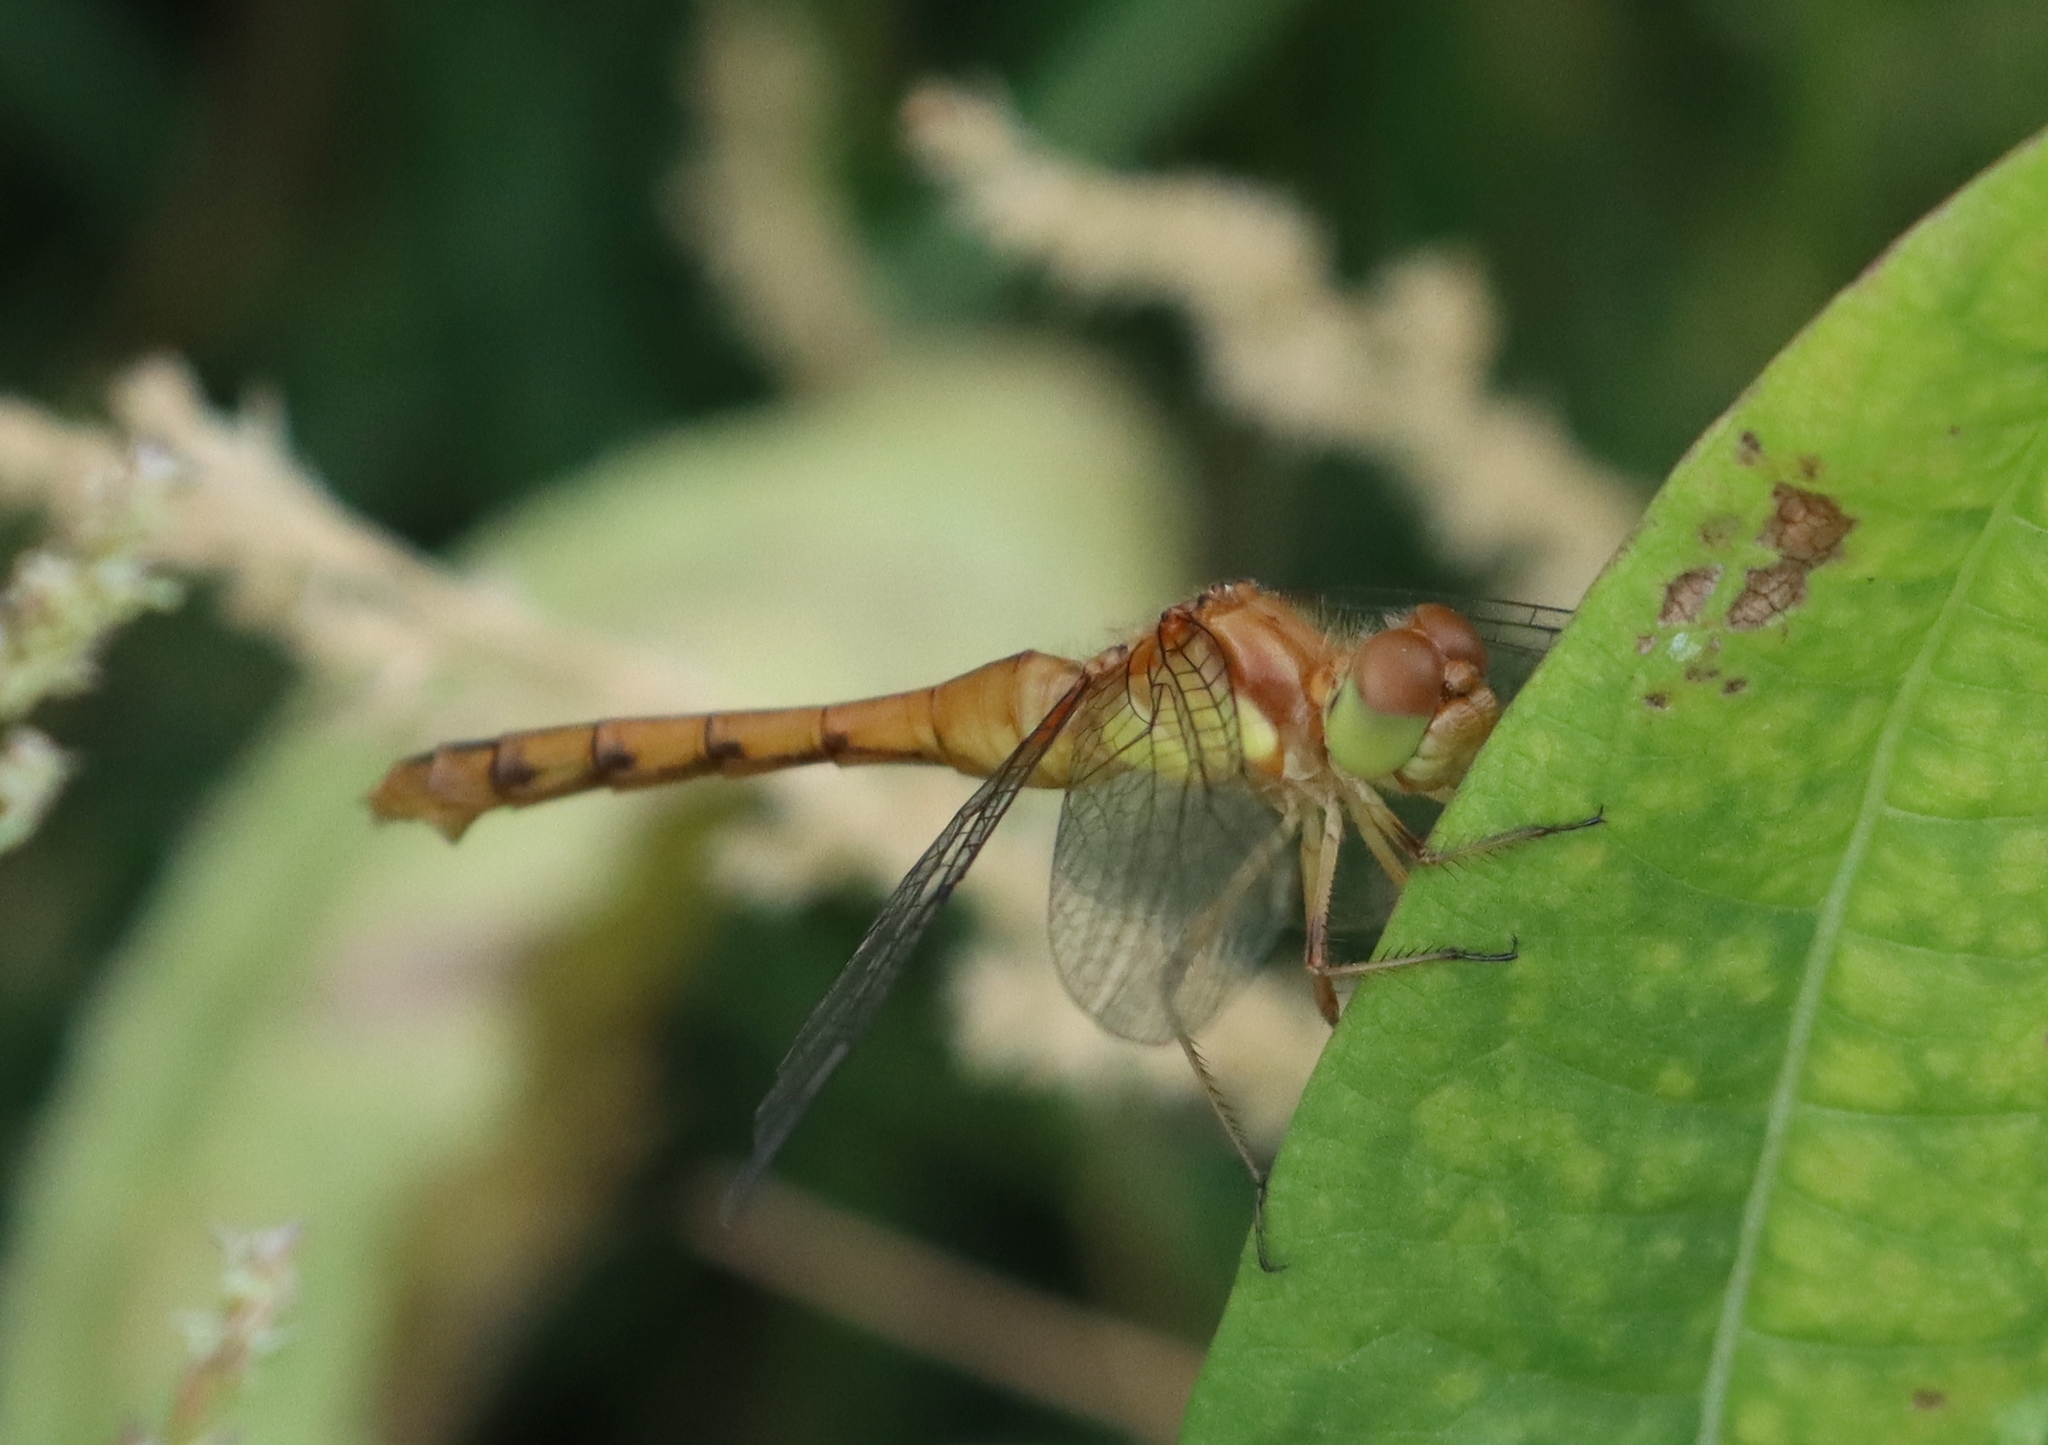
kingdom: Animalia
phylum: Arthropoda
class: Insecta
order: Odonata
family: Libellulidae
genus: Sympetrum
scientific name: Sympetrum vicinum
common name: Autumn meadowhawk
